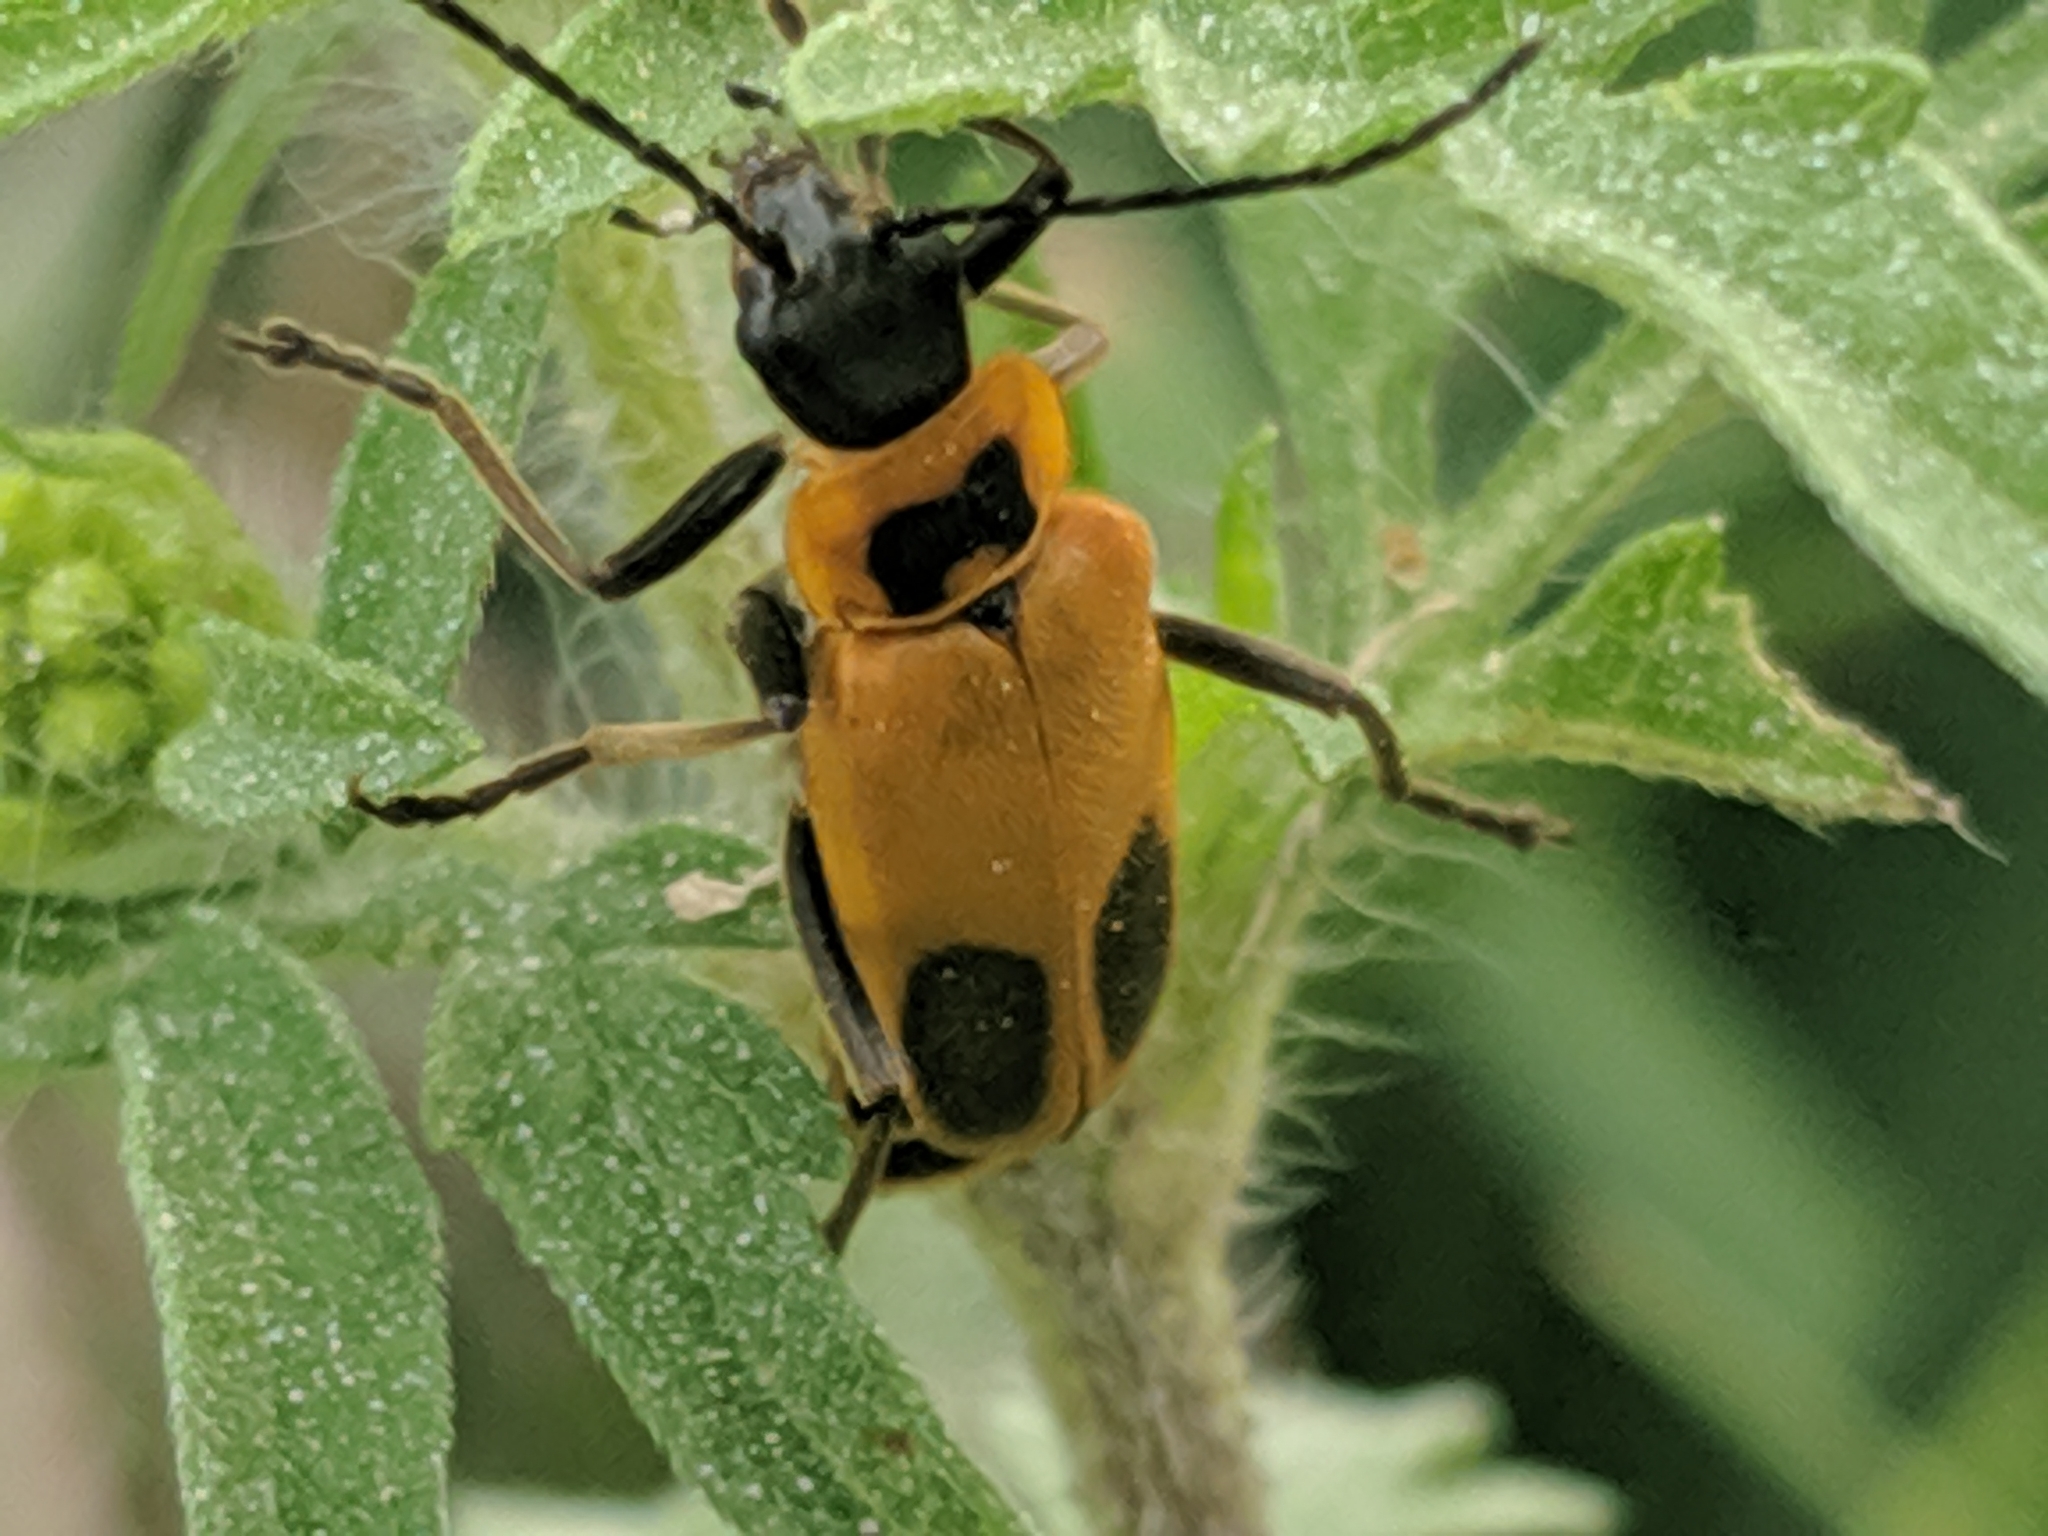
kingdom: Animalia
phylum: Arthropoda
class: Insecta
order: Coleoptera
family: Cantharidae
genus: Chauliognathus
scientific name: Chauliognathus pensylvanicus
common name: Goldenrod soldier beetle
